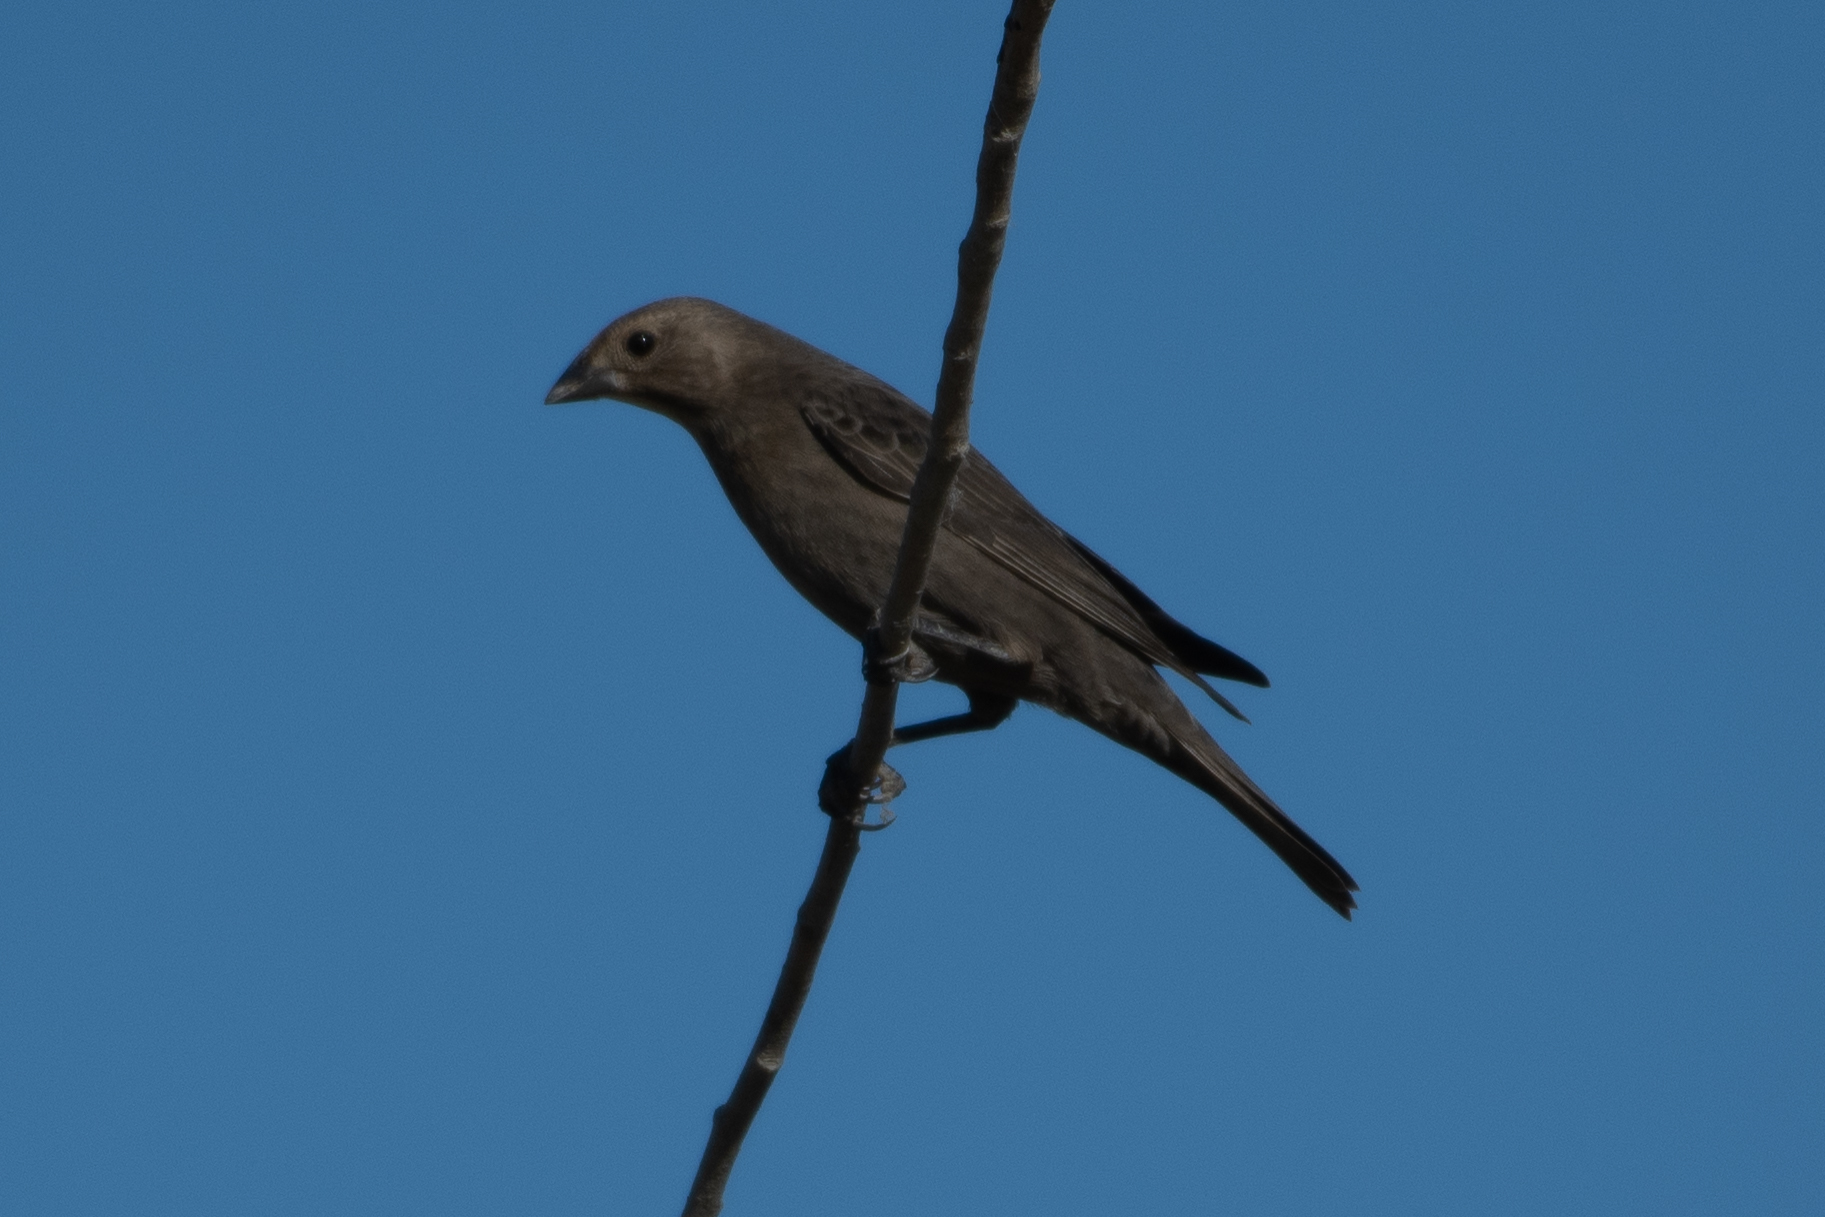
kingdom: Animalia
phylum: Chordata
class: Aves
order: Passeriformes
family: Icteridae
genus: Molothrus
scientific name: Molothrus ater
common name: Brown-headed cowbird
